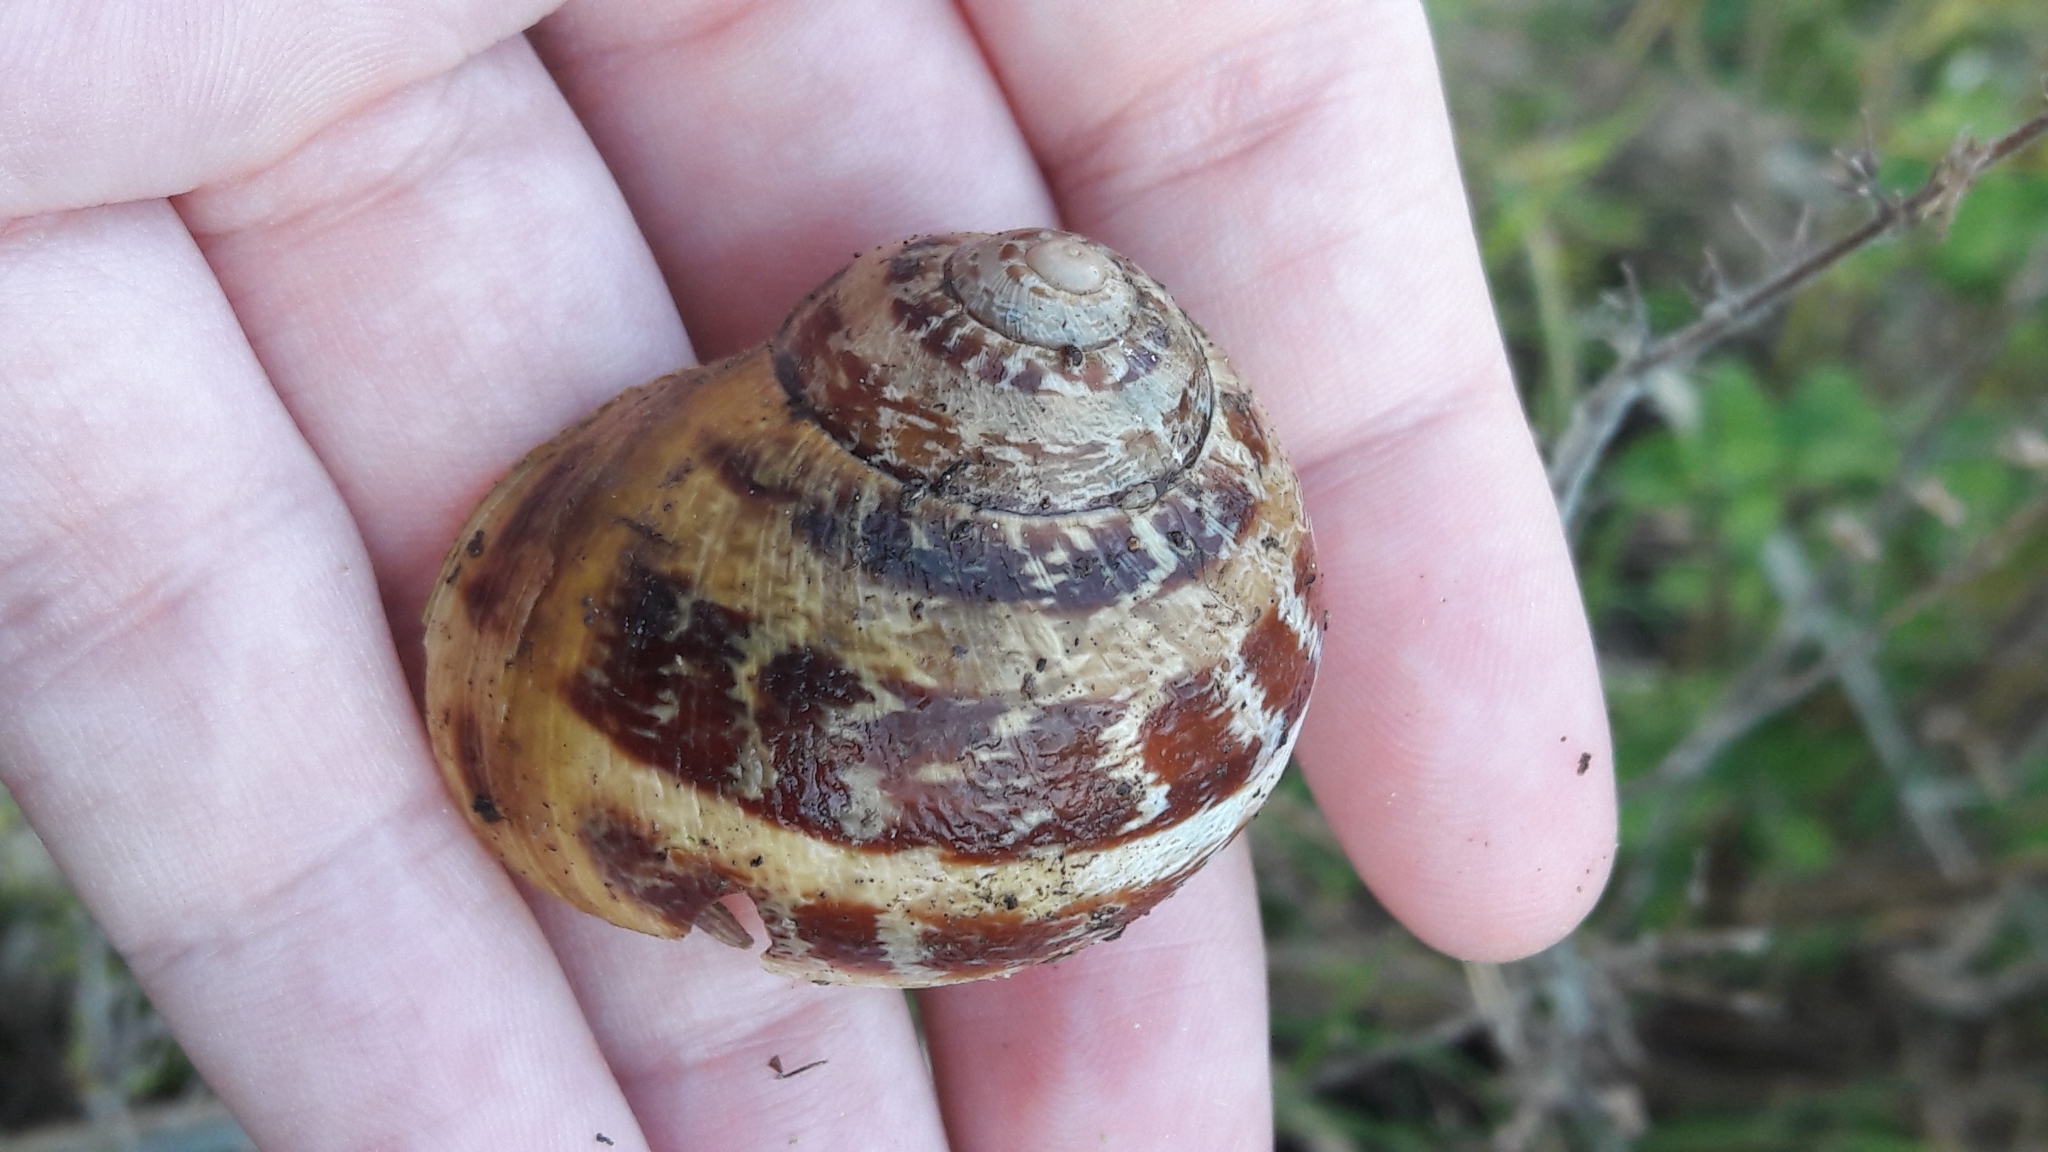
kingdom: Animalia
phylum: Mollusca
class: Gastropoda
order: Stylommatophora
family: Helicidae
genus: Cornu
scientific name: Cornu aspersum
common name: Brown garden snail
